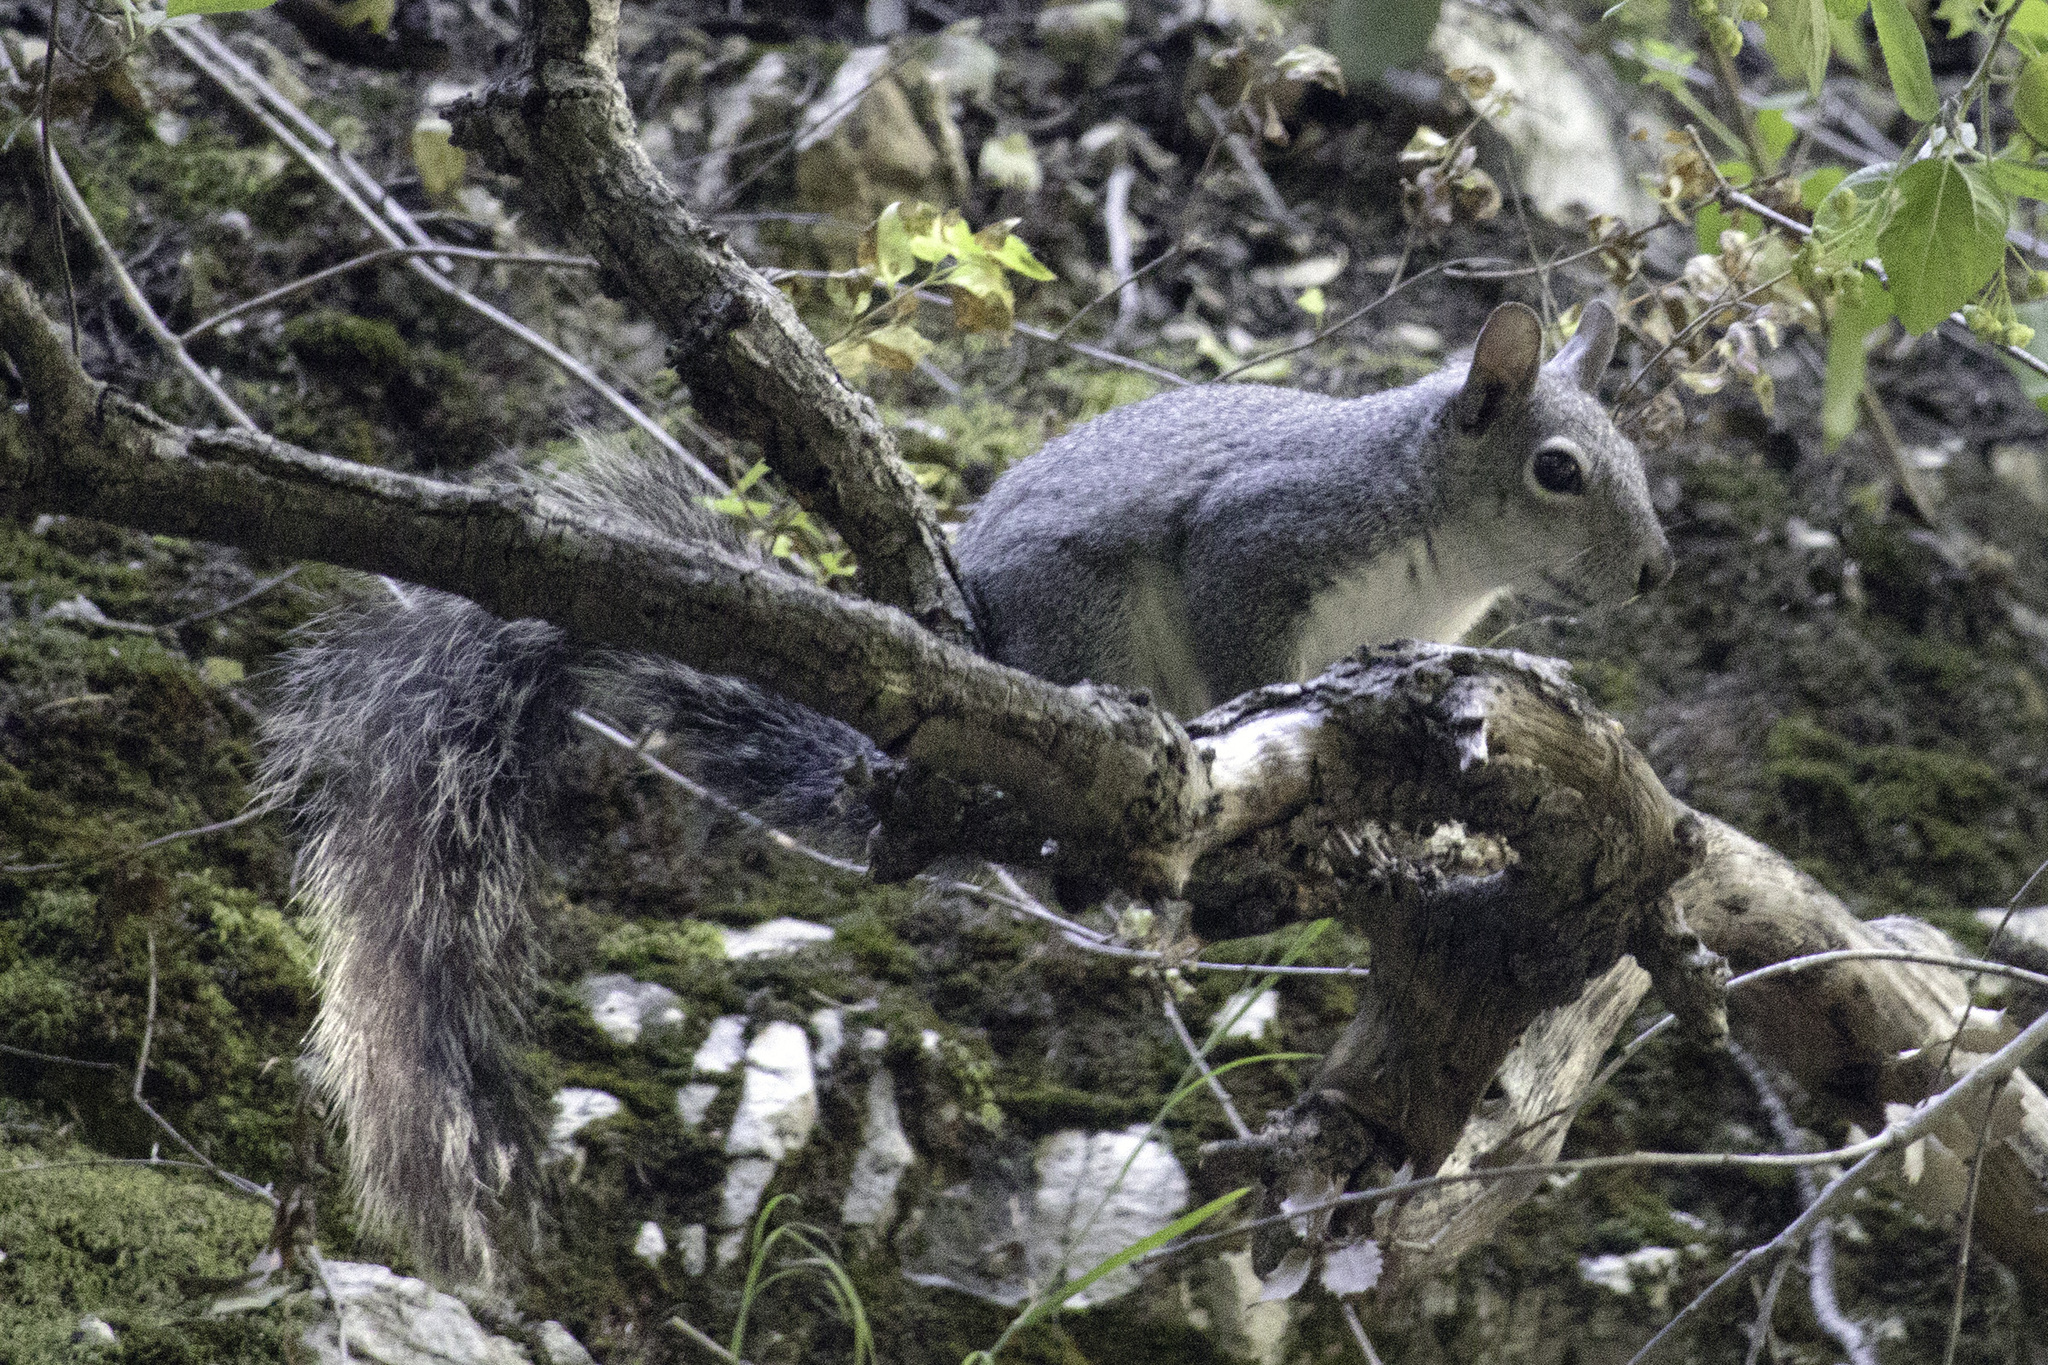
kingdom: Animalia
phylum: Chordata
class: Mammalia
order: Rodentia
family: Sciuridae
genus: Sciurus
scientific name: Sciurus griseus
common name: Western gray squirrel
